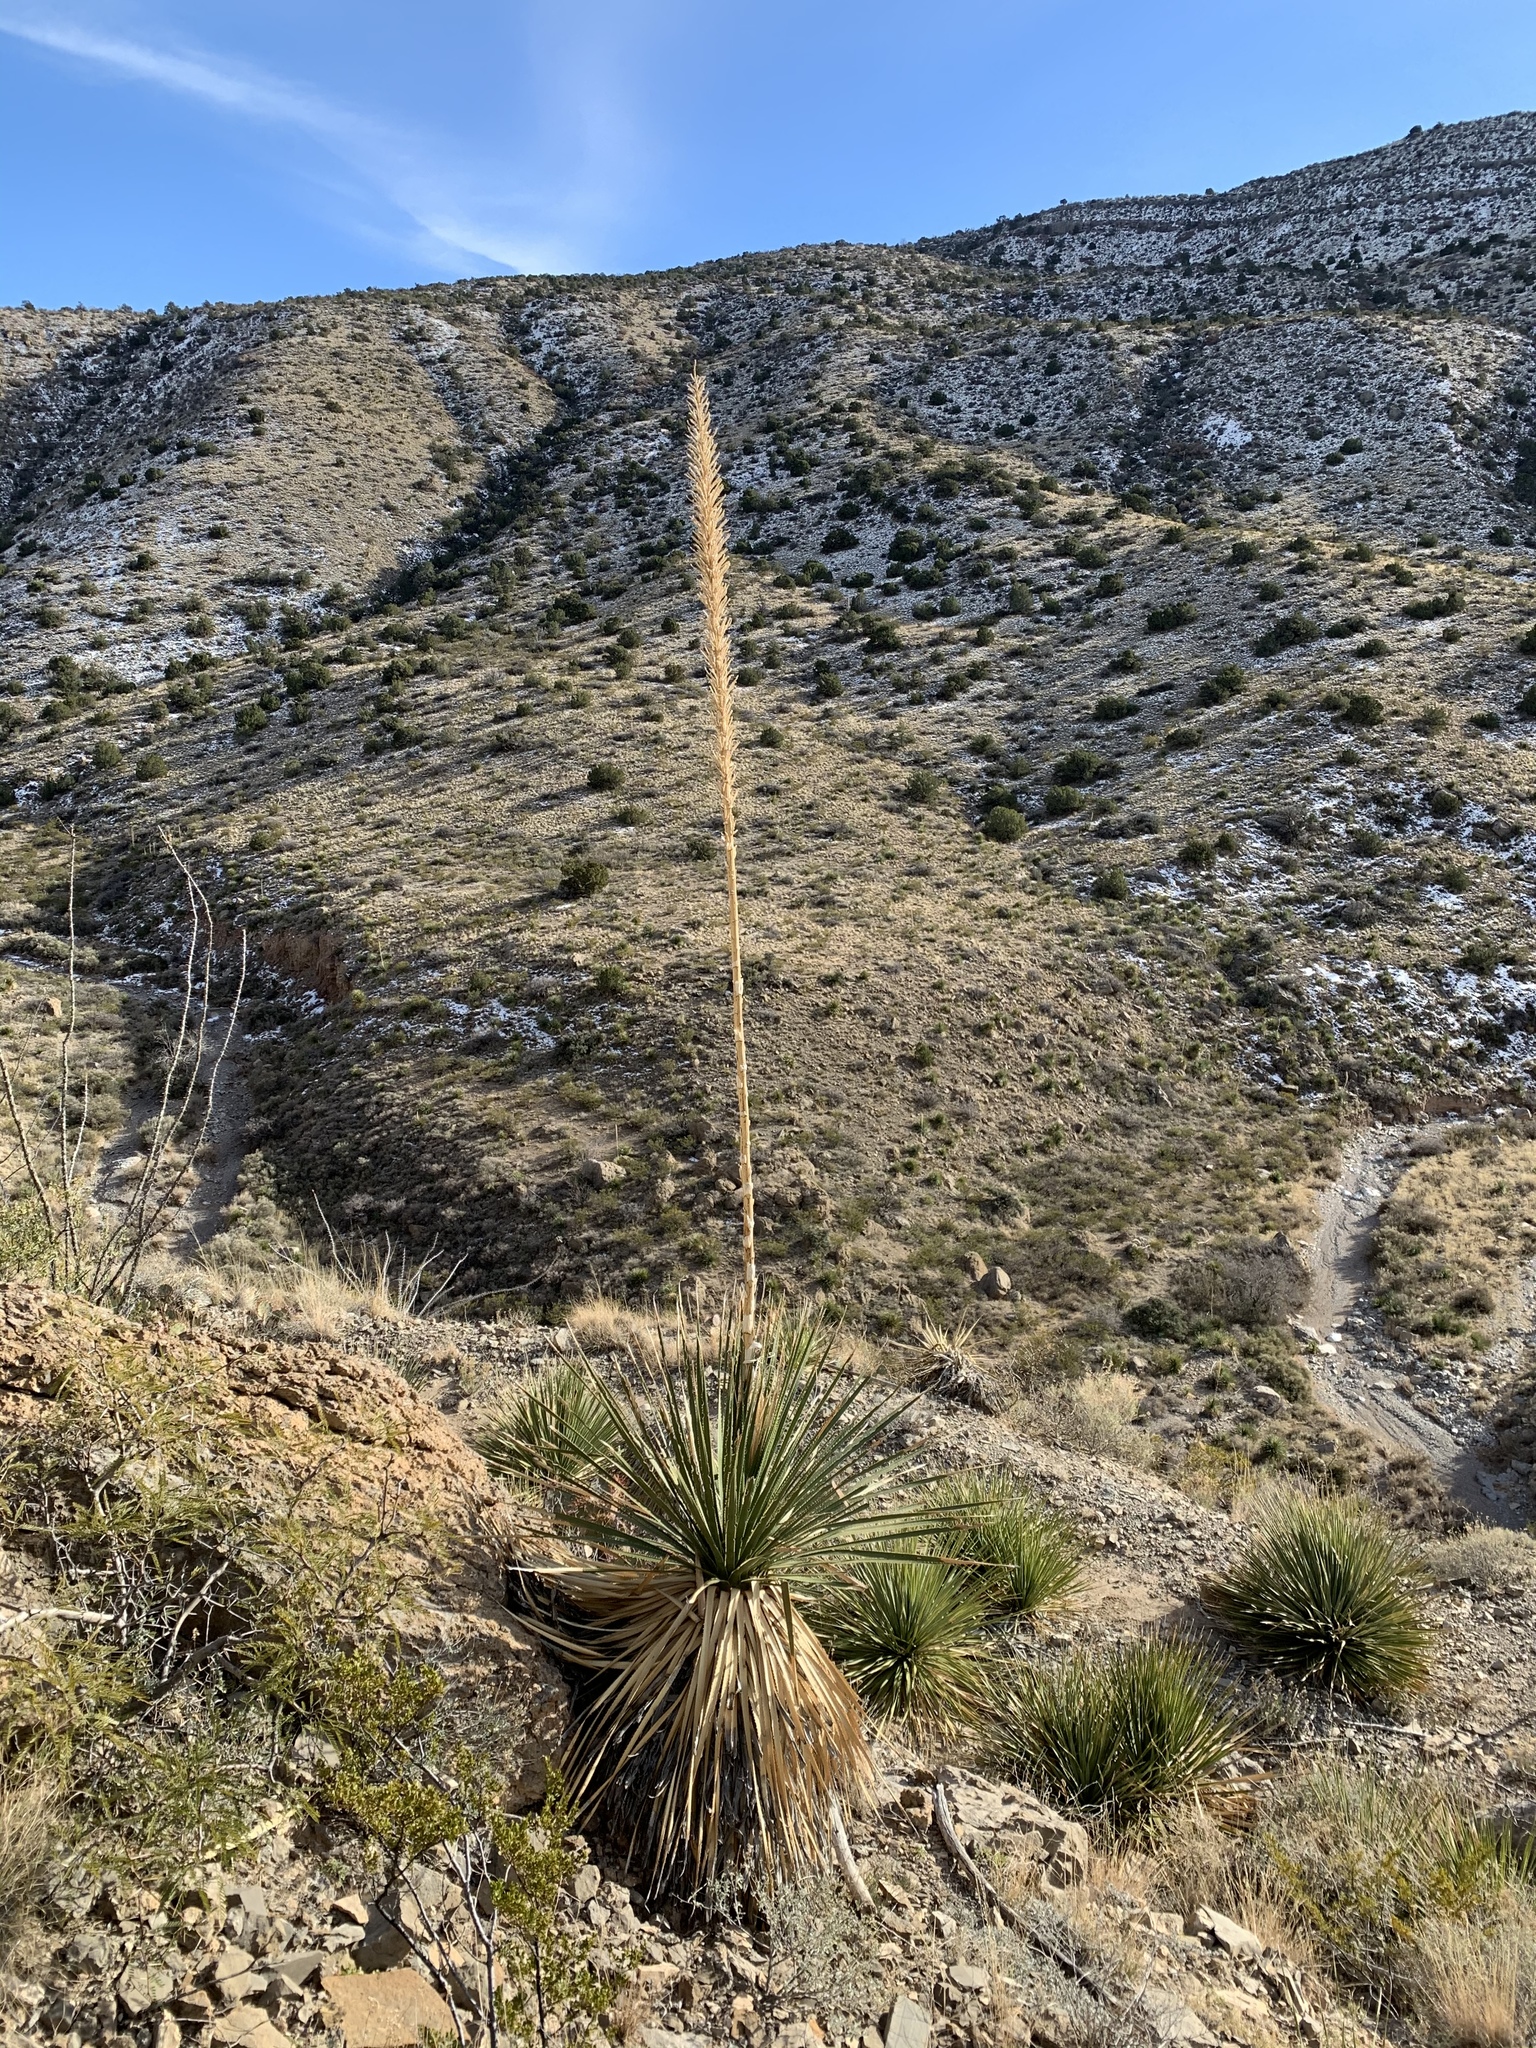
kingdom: Plantae
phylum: Tracheophyta
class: Liliopsida
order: Asparagales
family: Asparagaceae
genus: Dasylirion
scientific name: Dasylirion wheeleri
